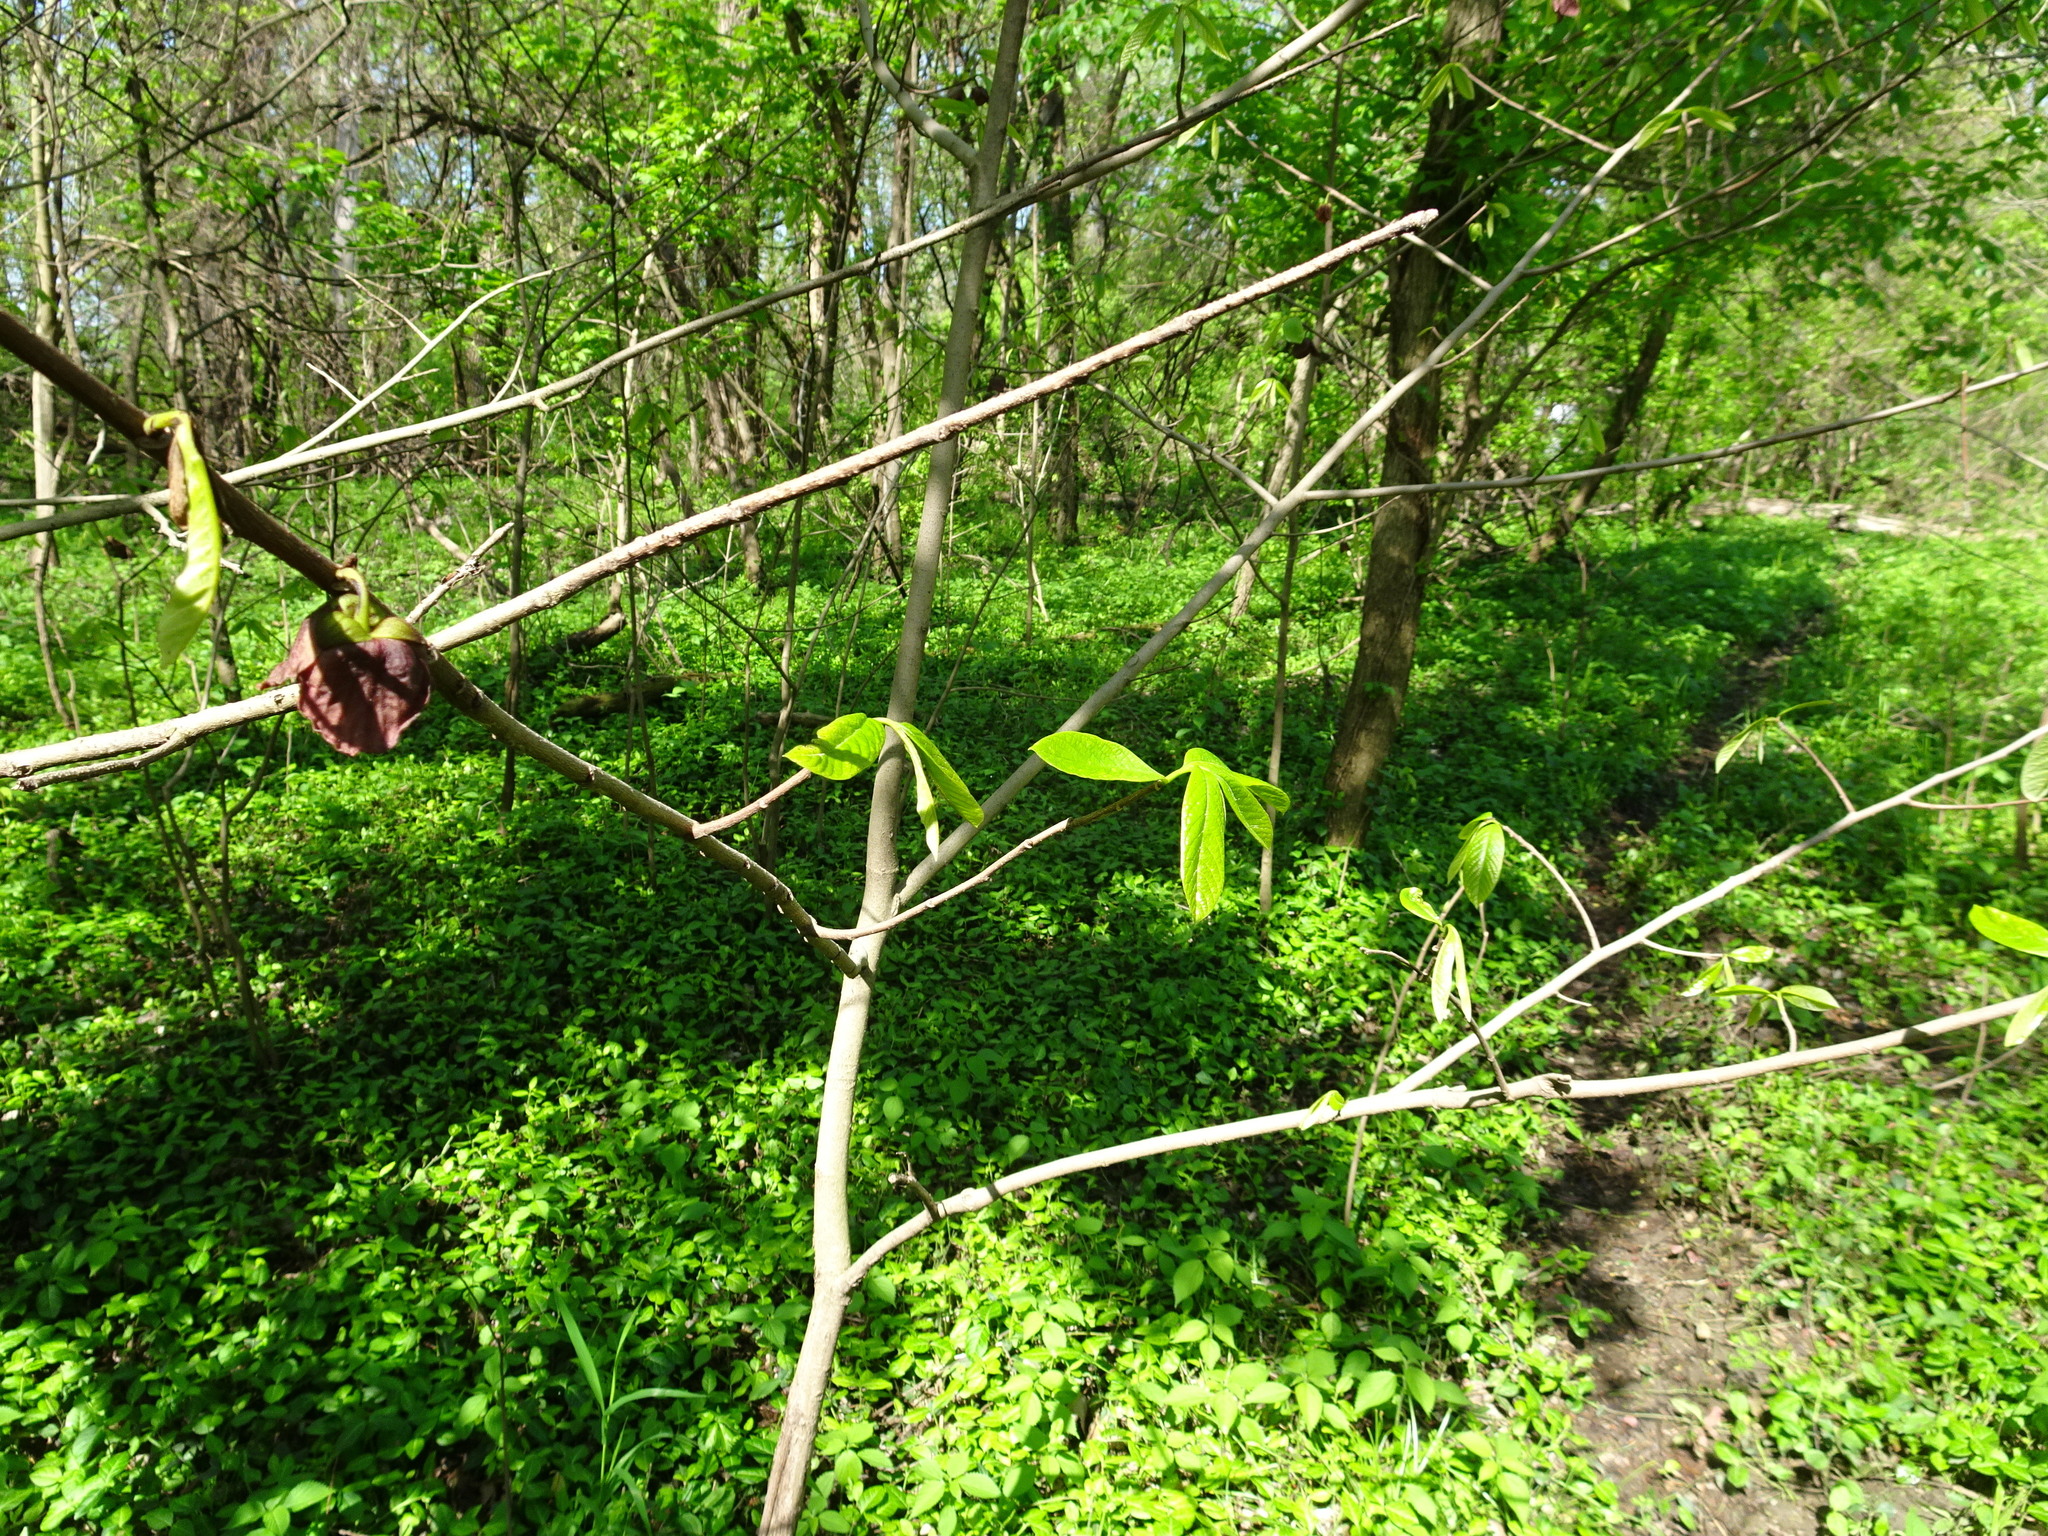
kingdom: Plantae
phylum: Tracheophyta
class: Magnoliopsida
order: Magnoliales
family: Annonaceae
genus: Asimina
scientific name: Asimina triloba
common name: Dog-banana
